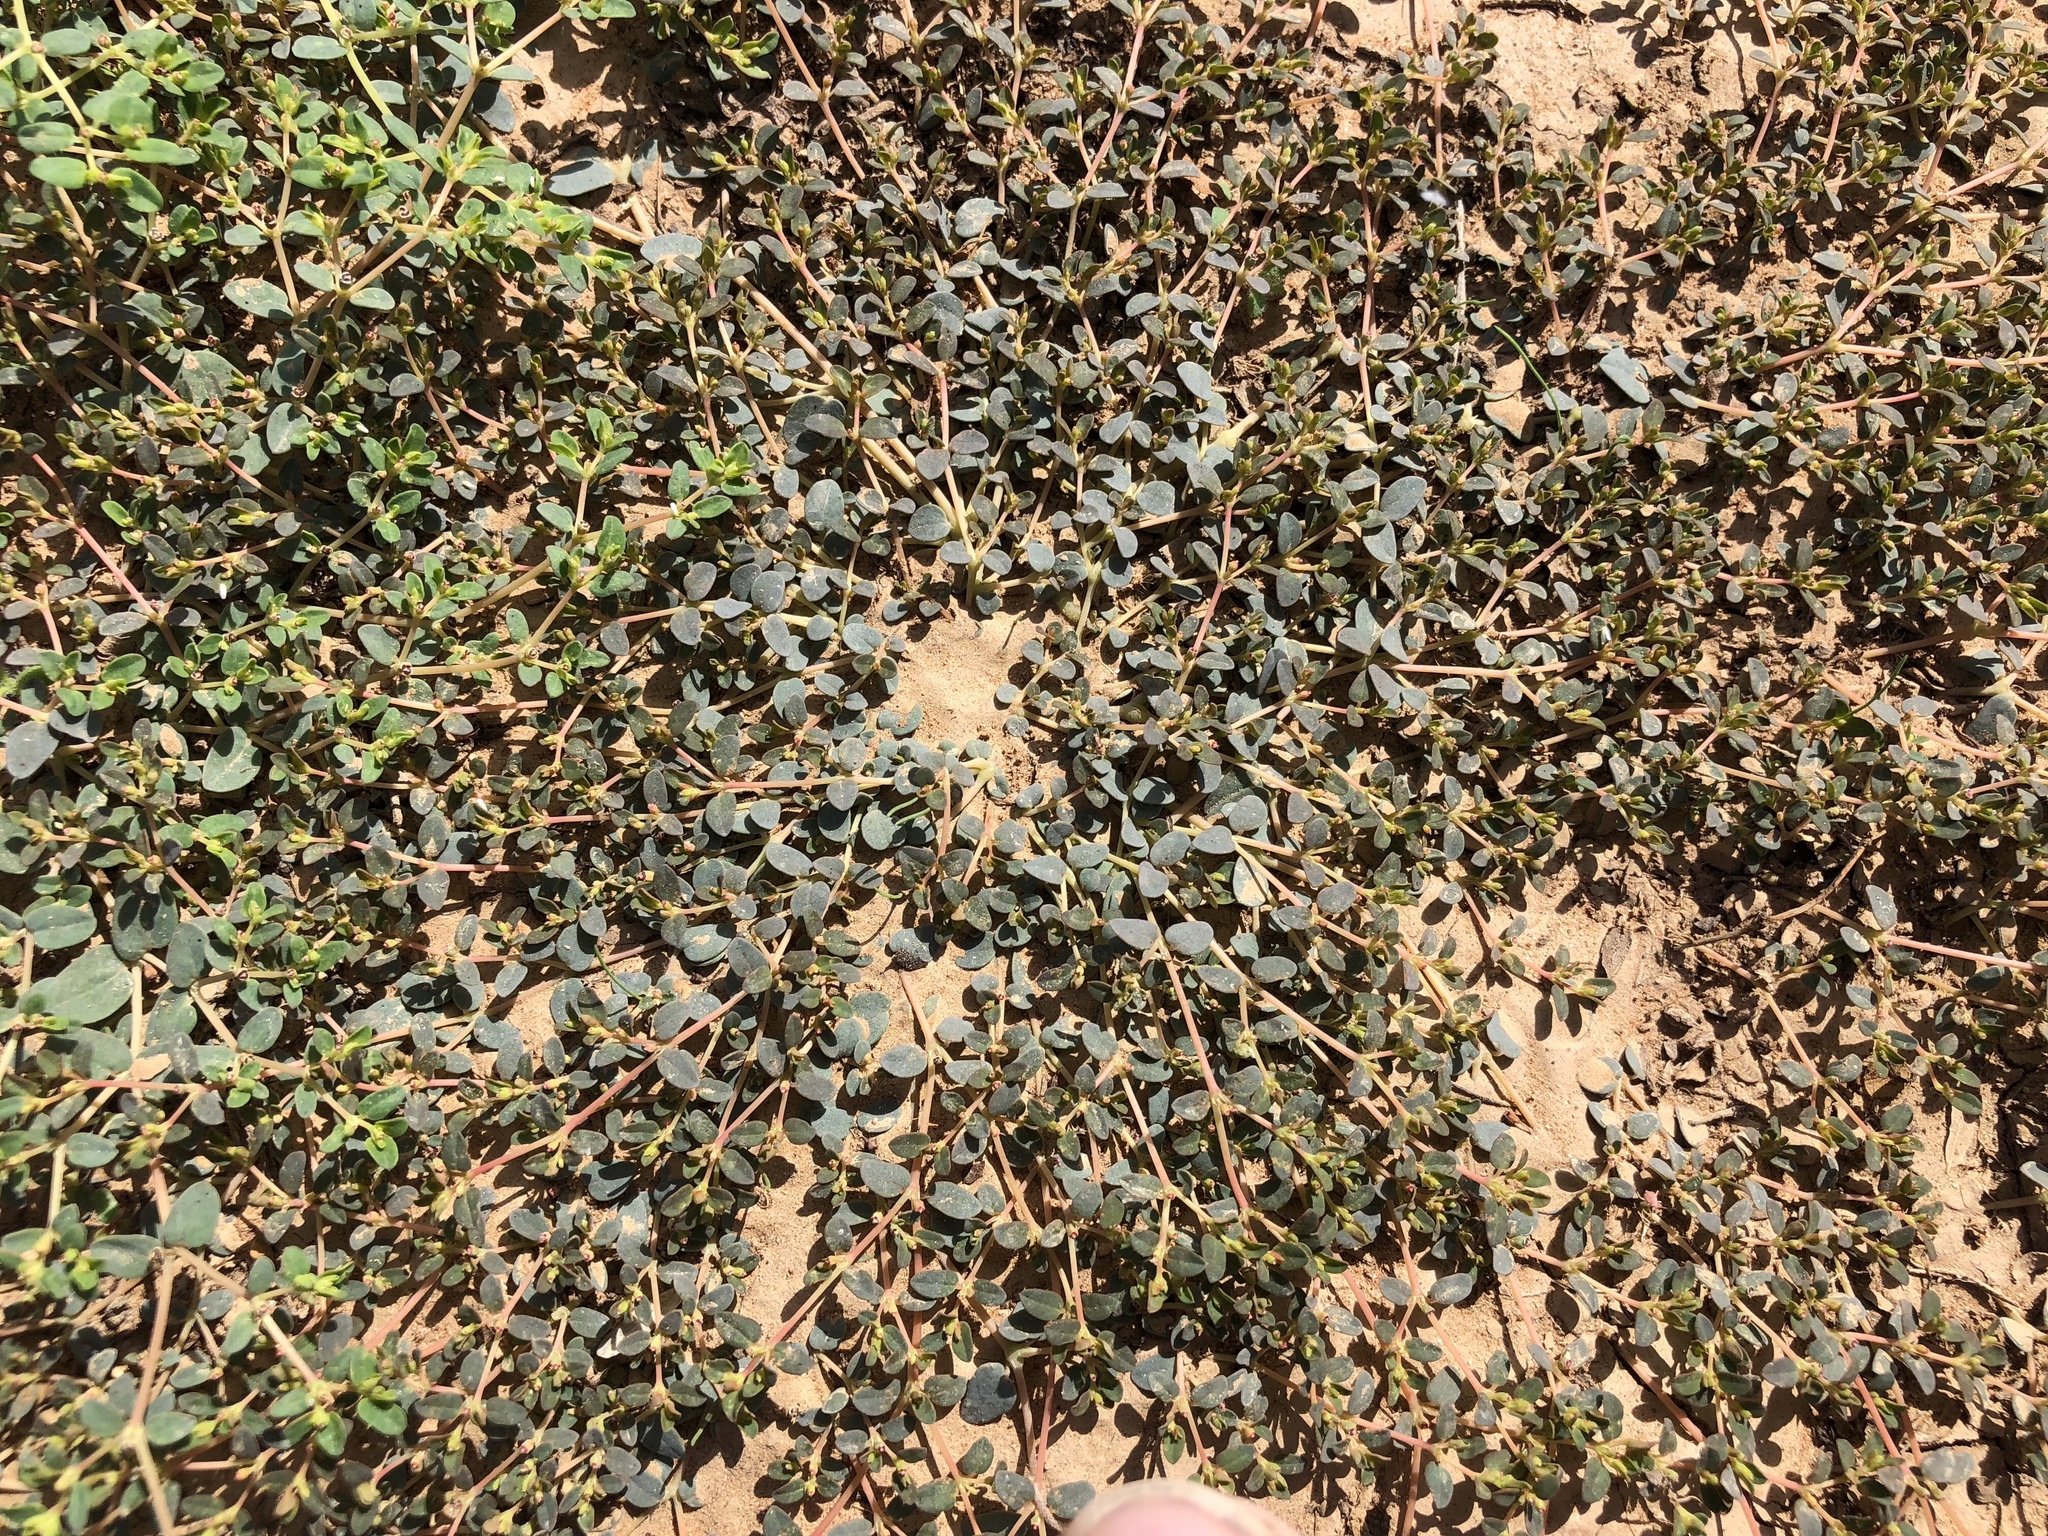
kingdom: Plantae
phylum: Tracheophyta
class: Magnoliopsida
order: Malpighiales
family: Euphorbiaceae
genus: Euphorbia
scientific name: Euphorbia micromera
